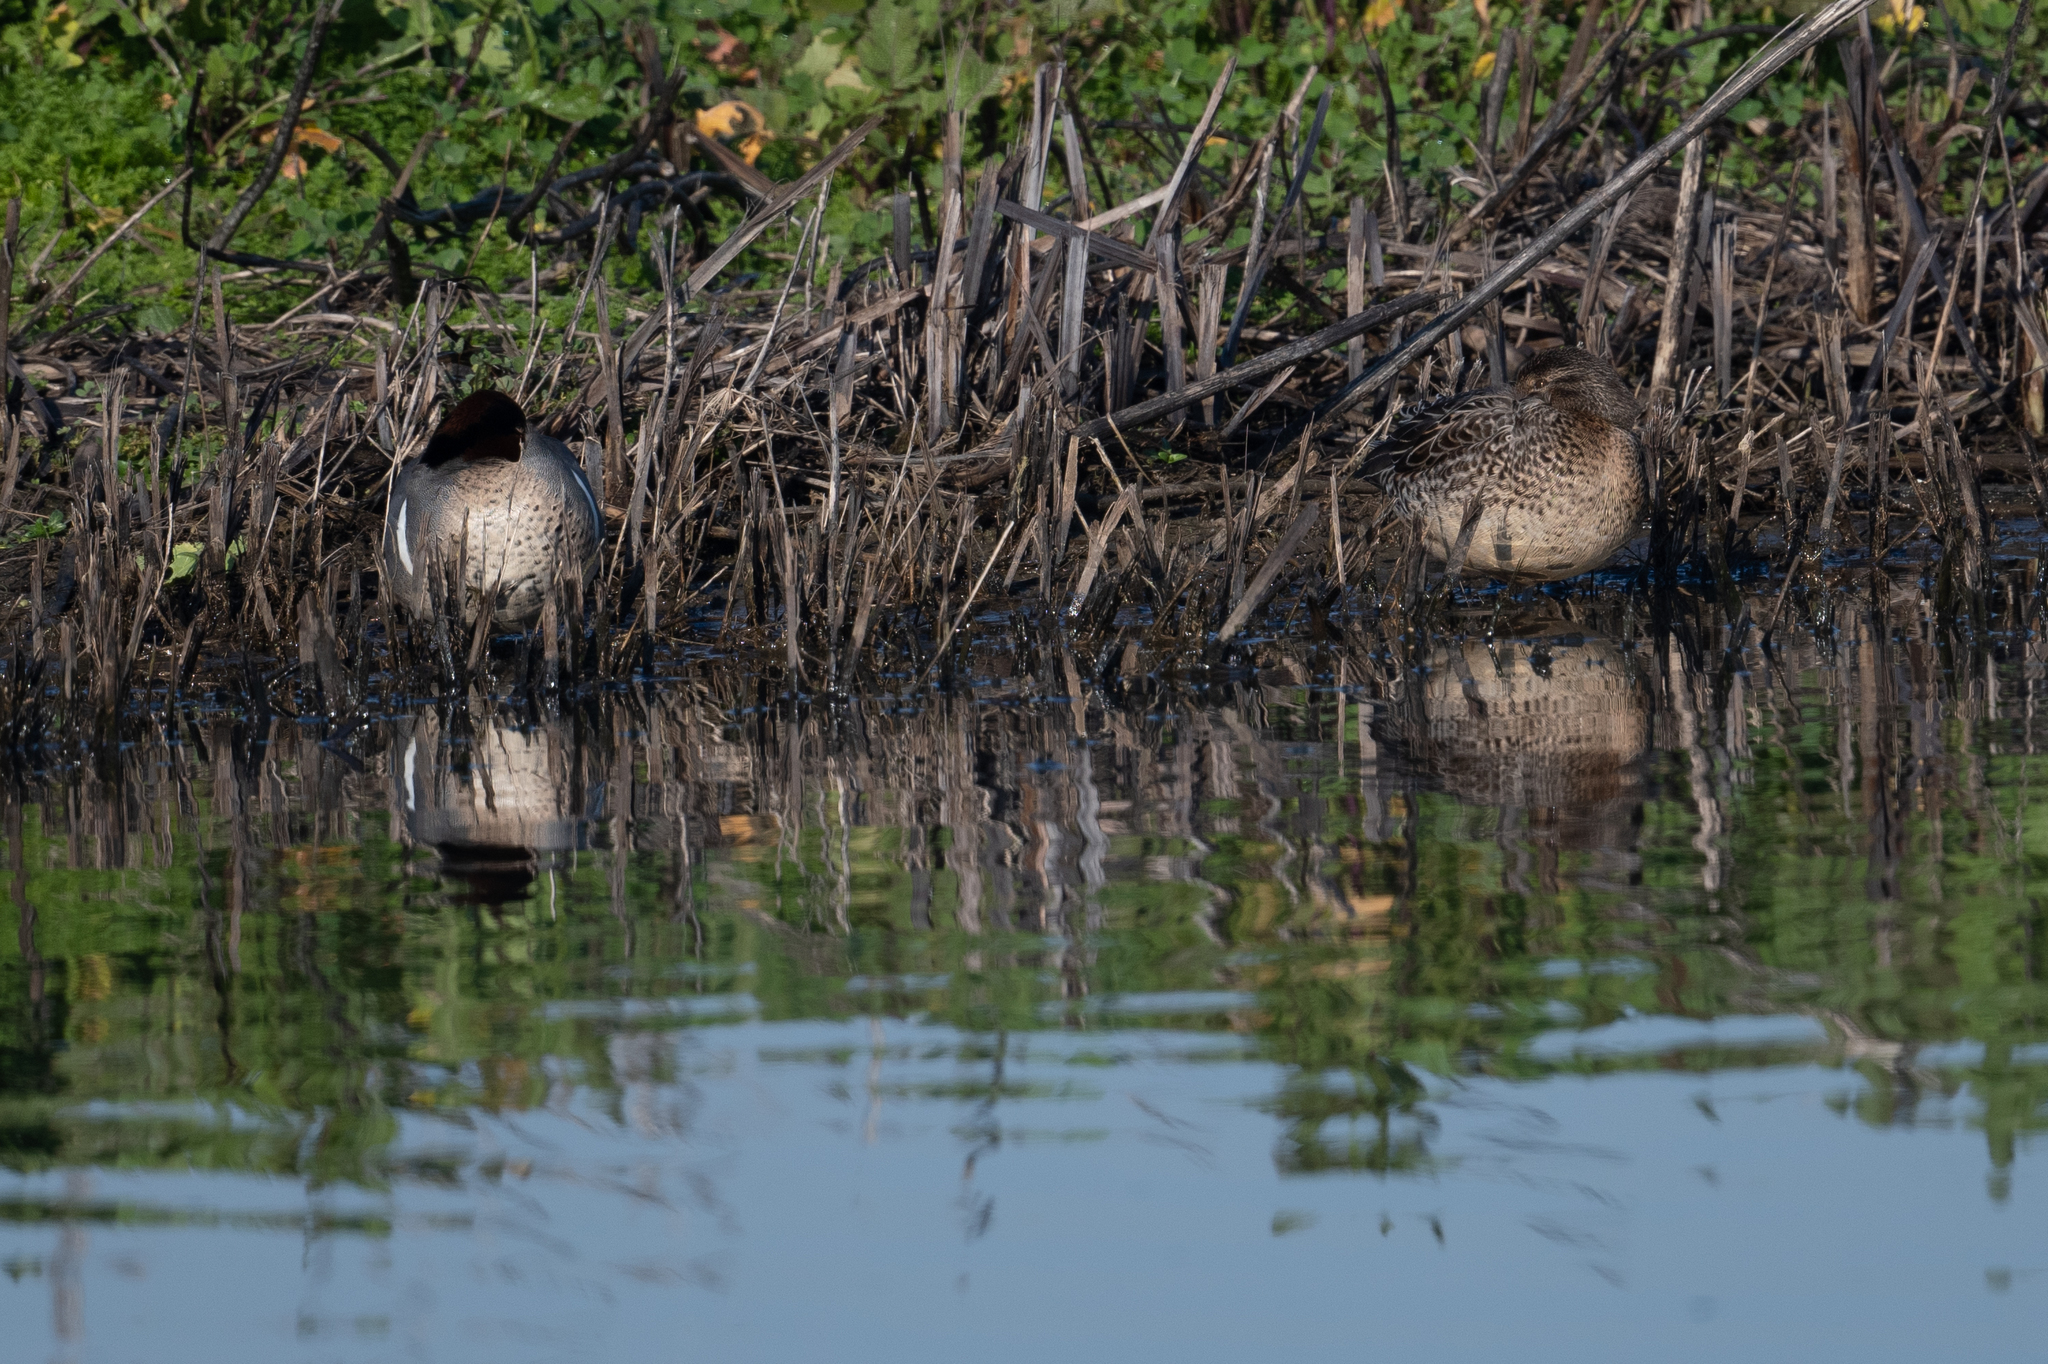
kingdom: Animalia
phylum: Chordata
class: Aves
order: Anseriformes
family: Anatidae
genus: Anas
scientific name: Anas crecca
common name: Eurasian teal
